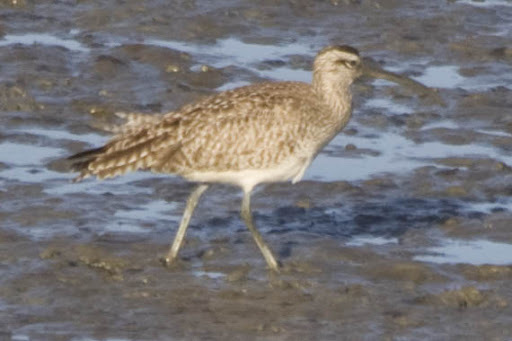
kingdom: Animalia
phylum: Chordata
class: Aves
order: Charadriiformes
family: Scolopacidae
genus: Numenius
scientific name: Numenius phaeopus
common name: Whimbrel
